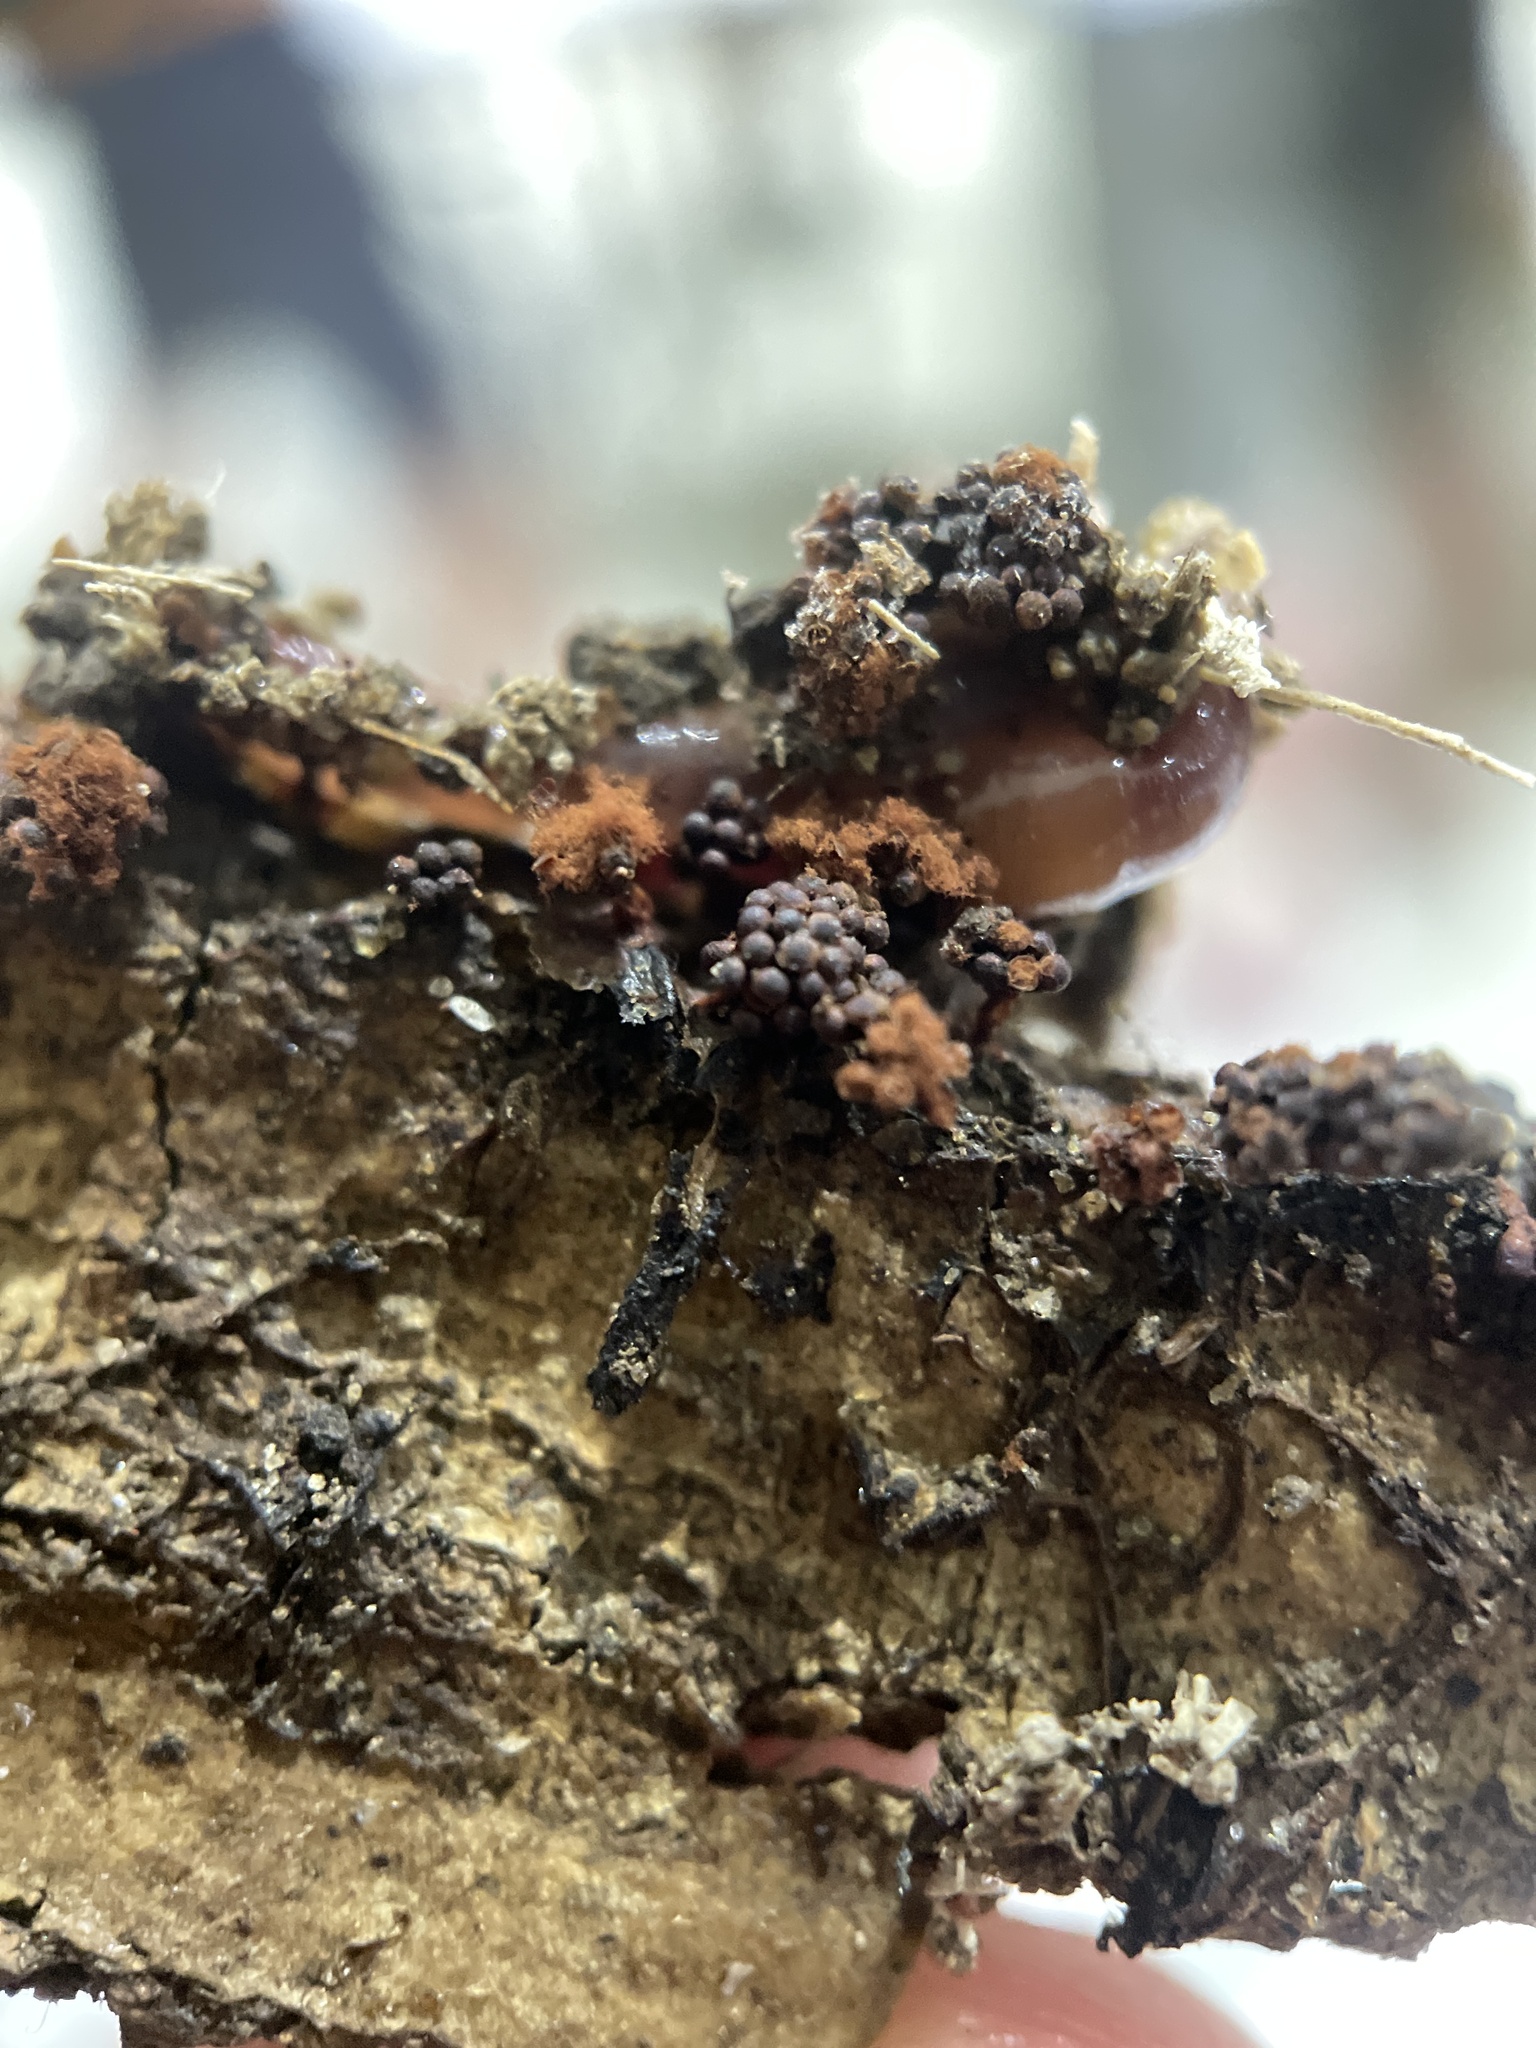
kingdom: Protozoa
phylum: Mycetozoa
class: Myxomycetes
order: Trichiales
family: Trichiaceae
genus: Metatrichia
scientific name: Metatrichia vesparia
